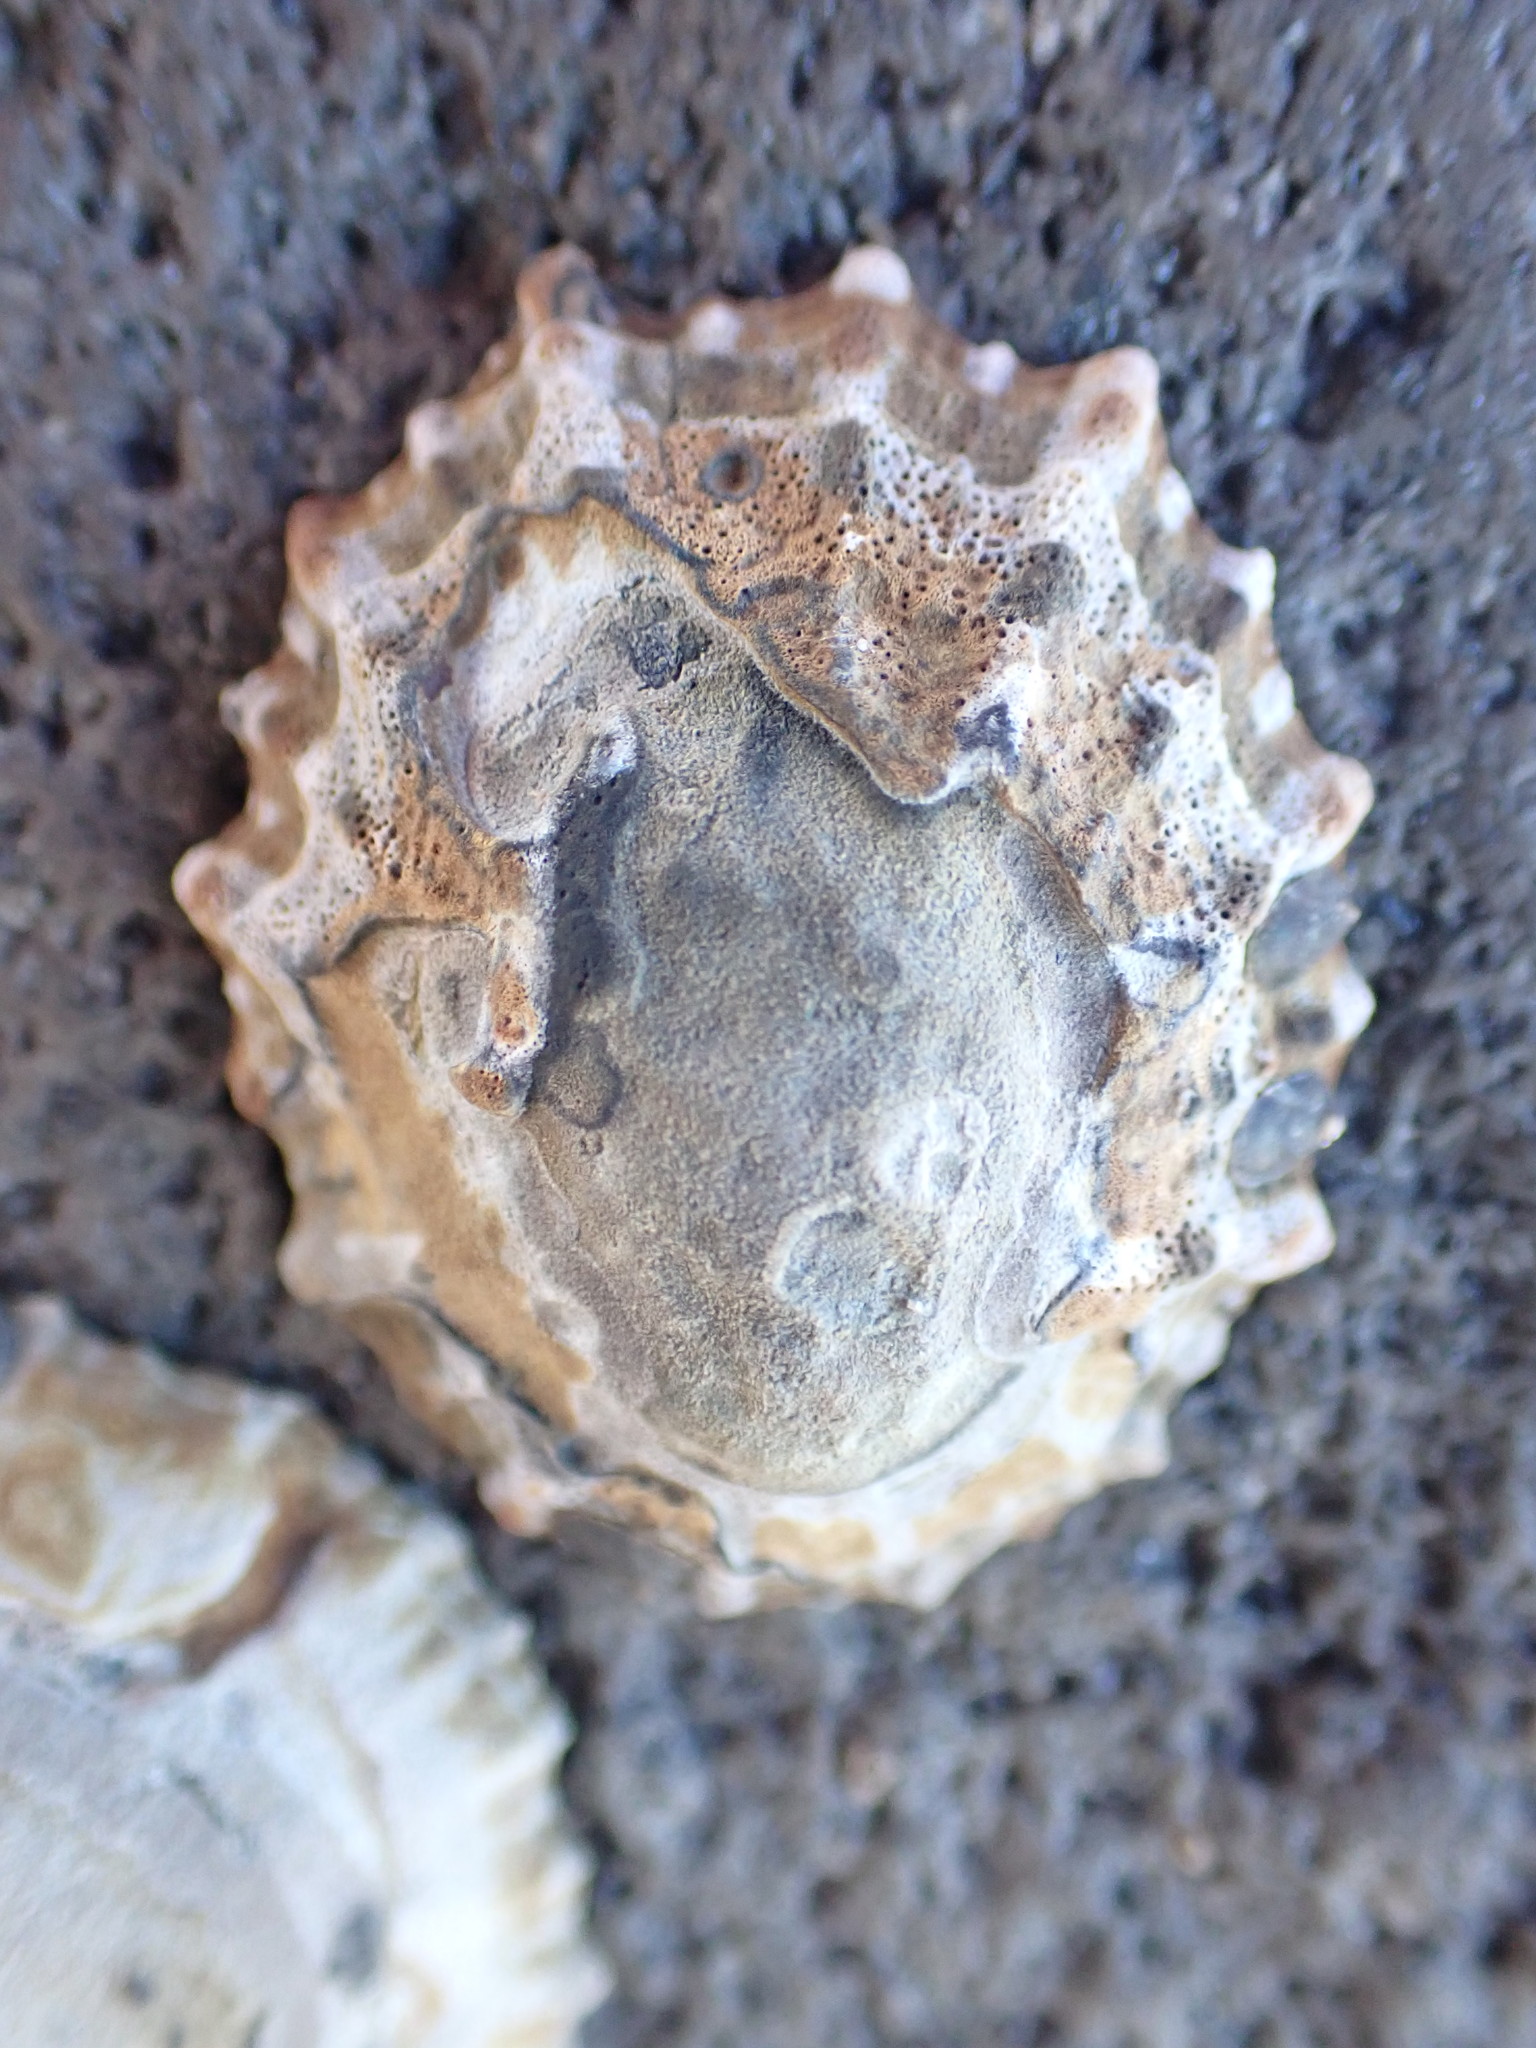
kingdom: Animalia
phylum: Mollusca
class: Gastropoda
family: Nacellidae
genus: Cellana
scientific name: Cellana ornata
